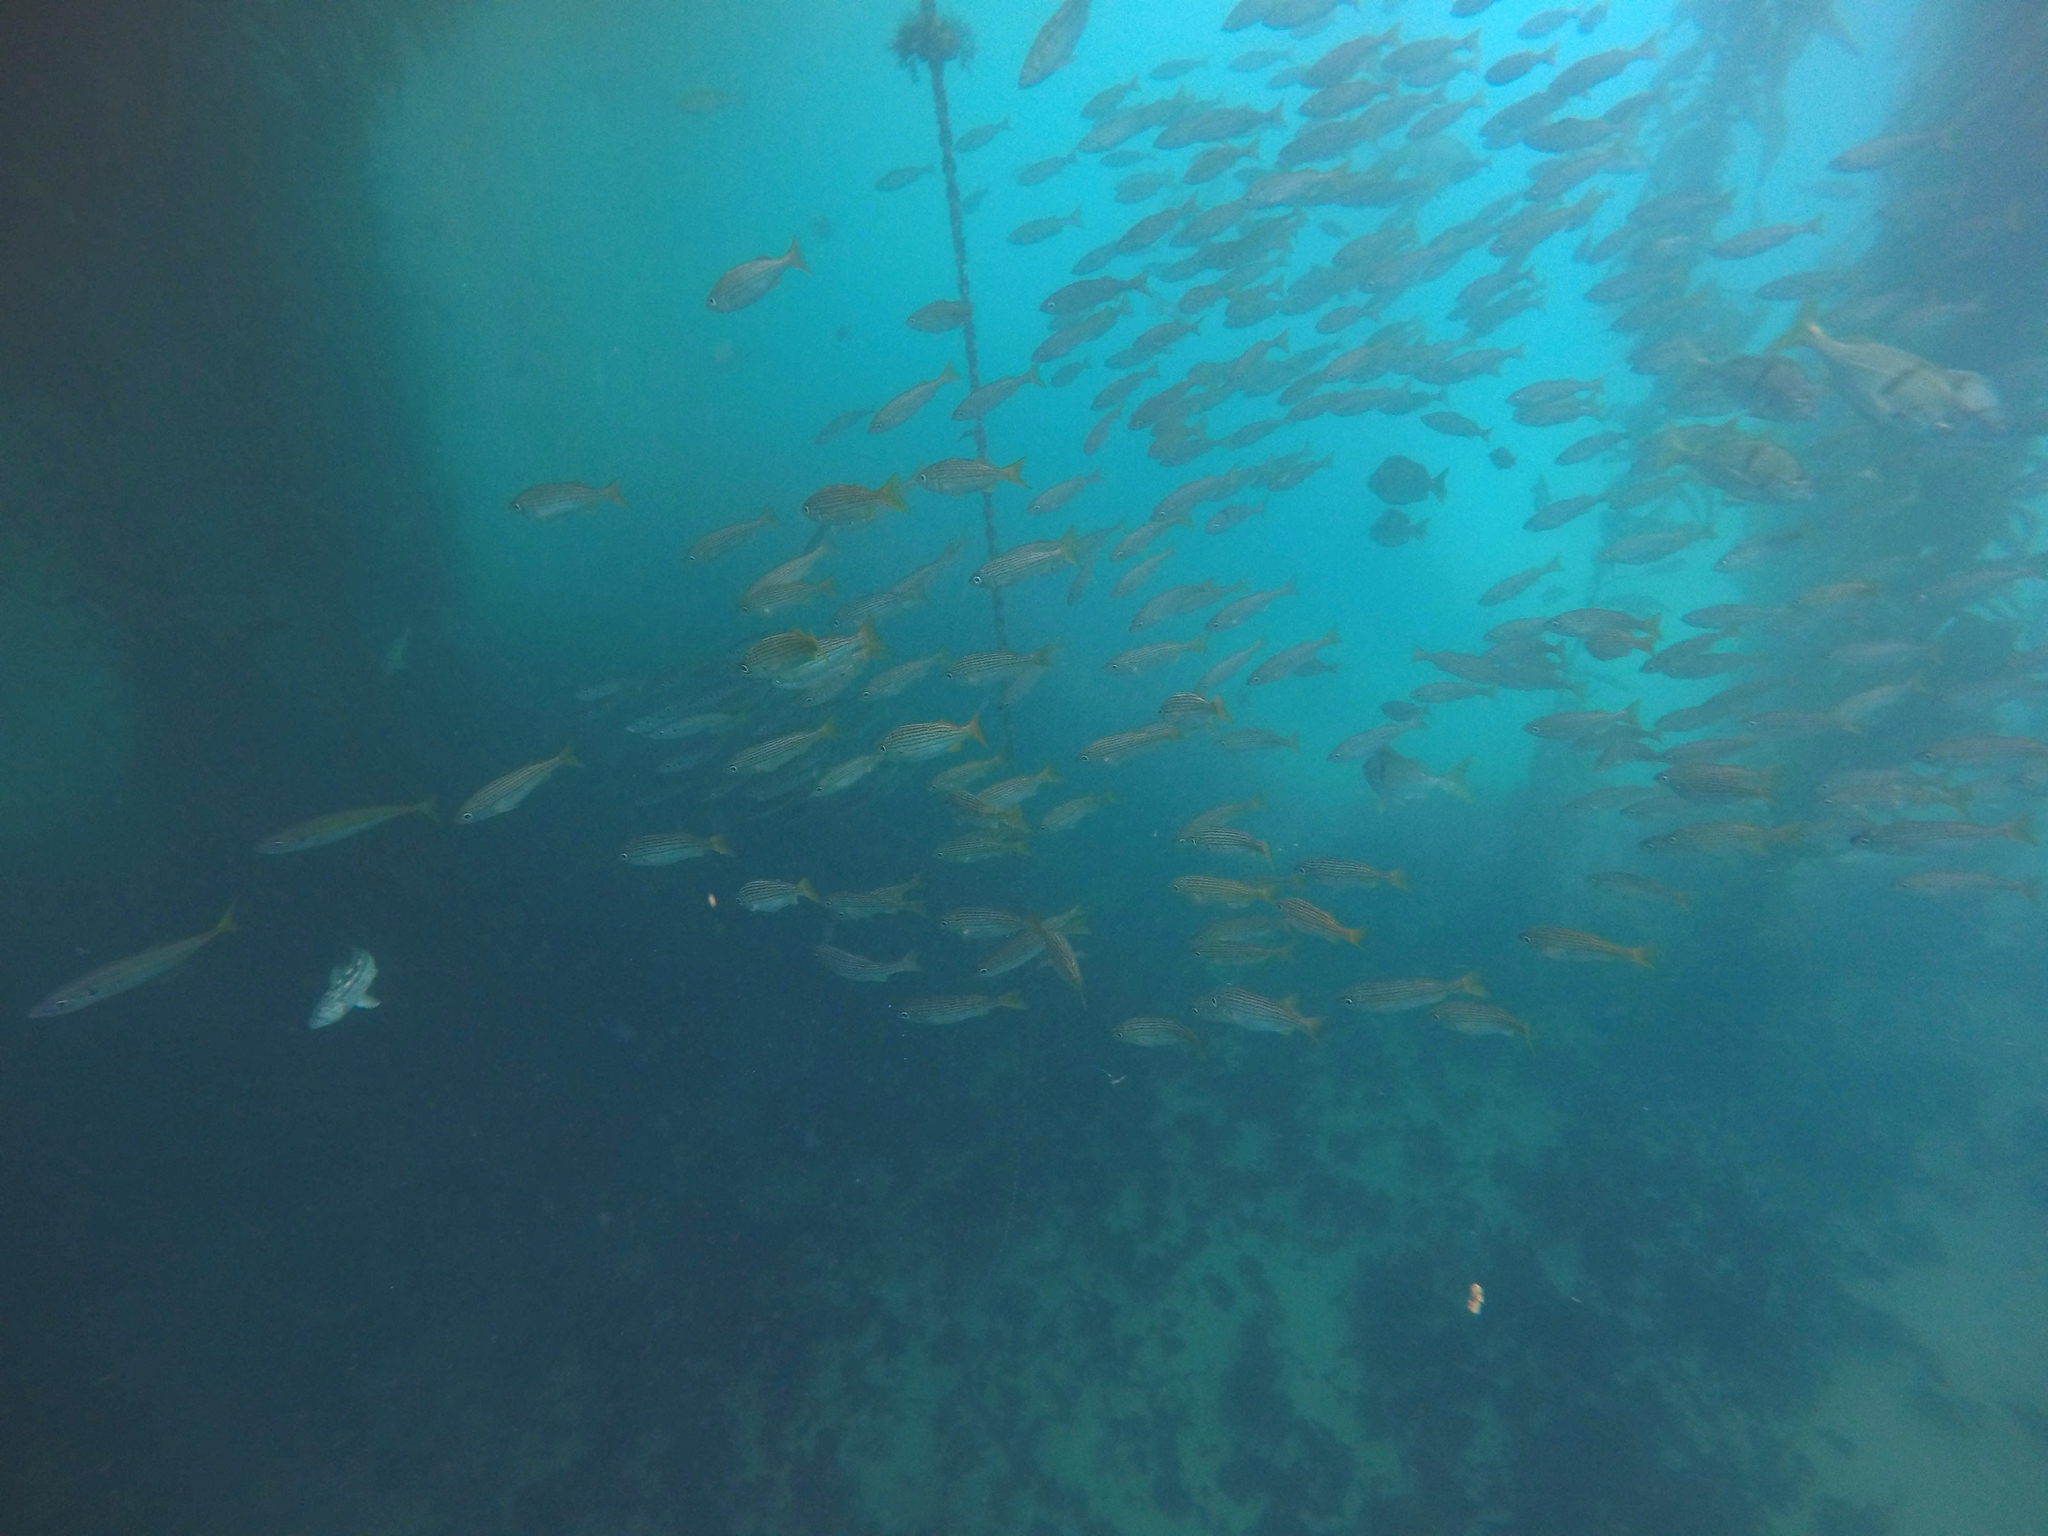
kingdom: Animalia
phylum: Chordata
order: Perciformes
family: Haemulidae
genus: Haemulon
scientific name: Haemulon californiensis
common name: Californian salema
